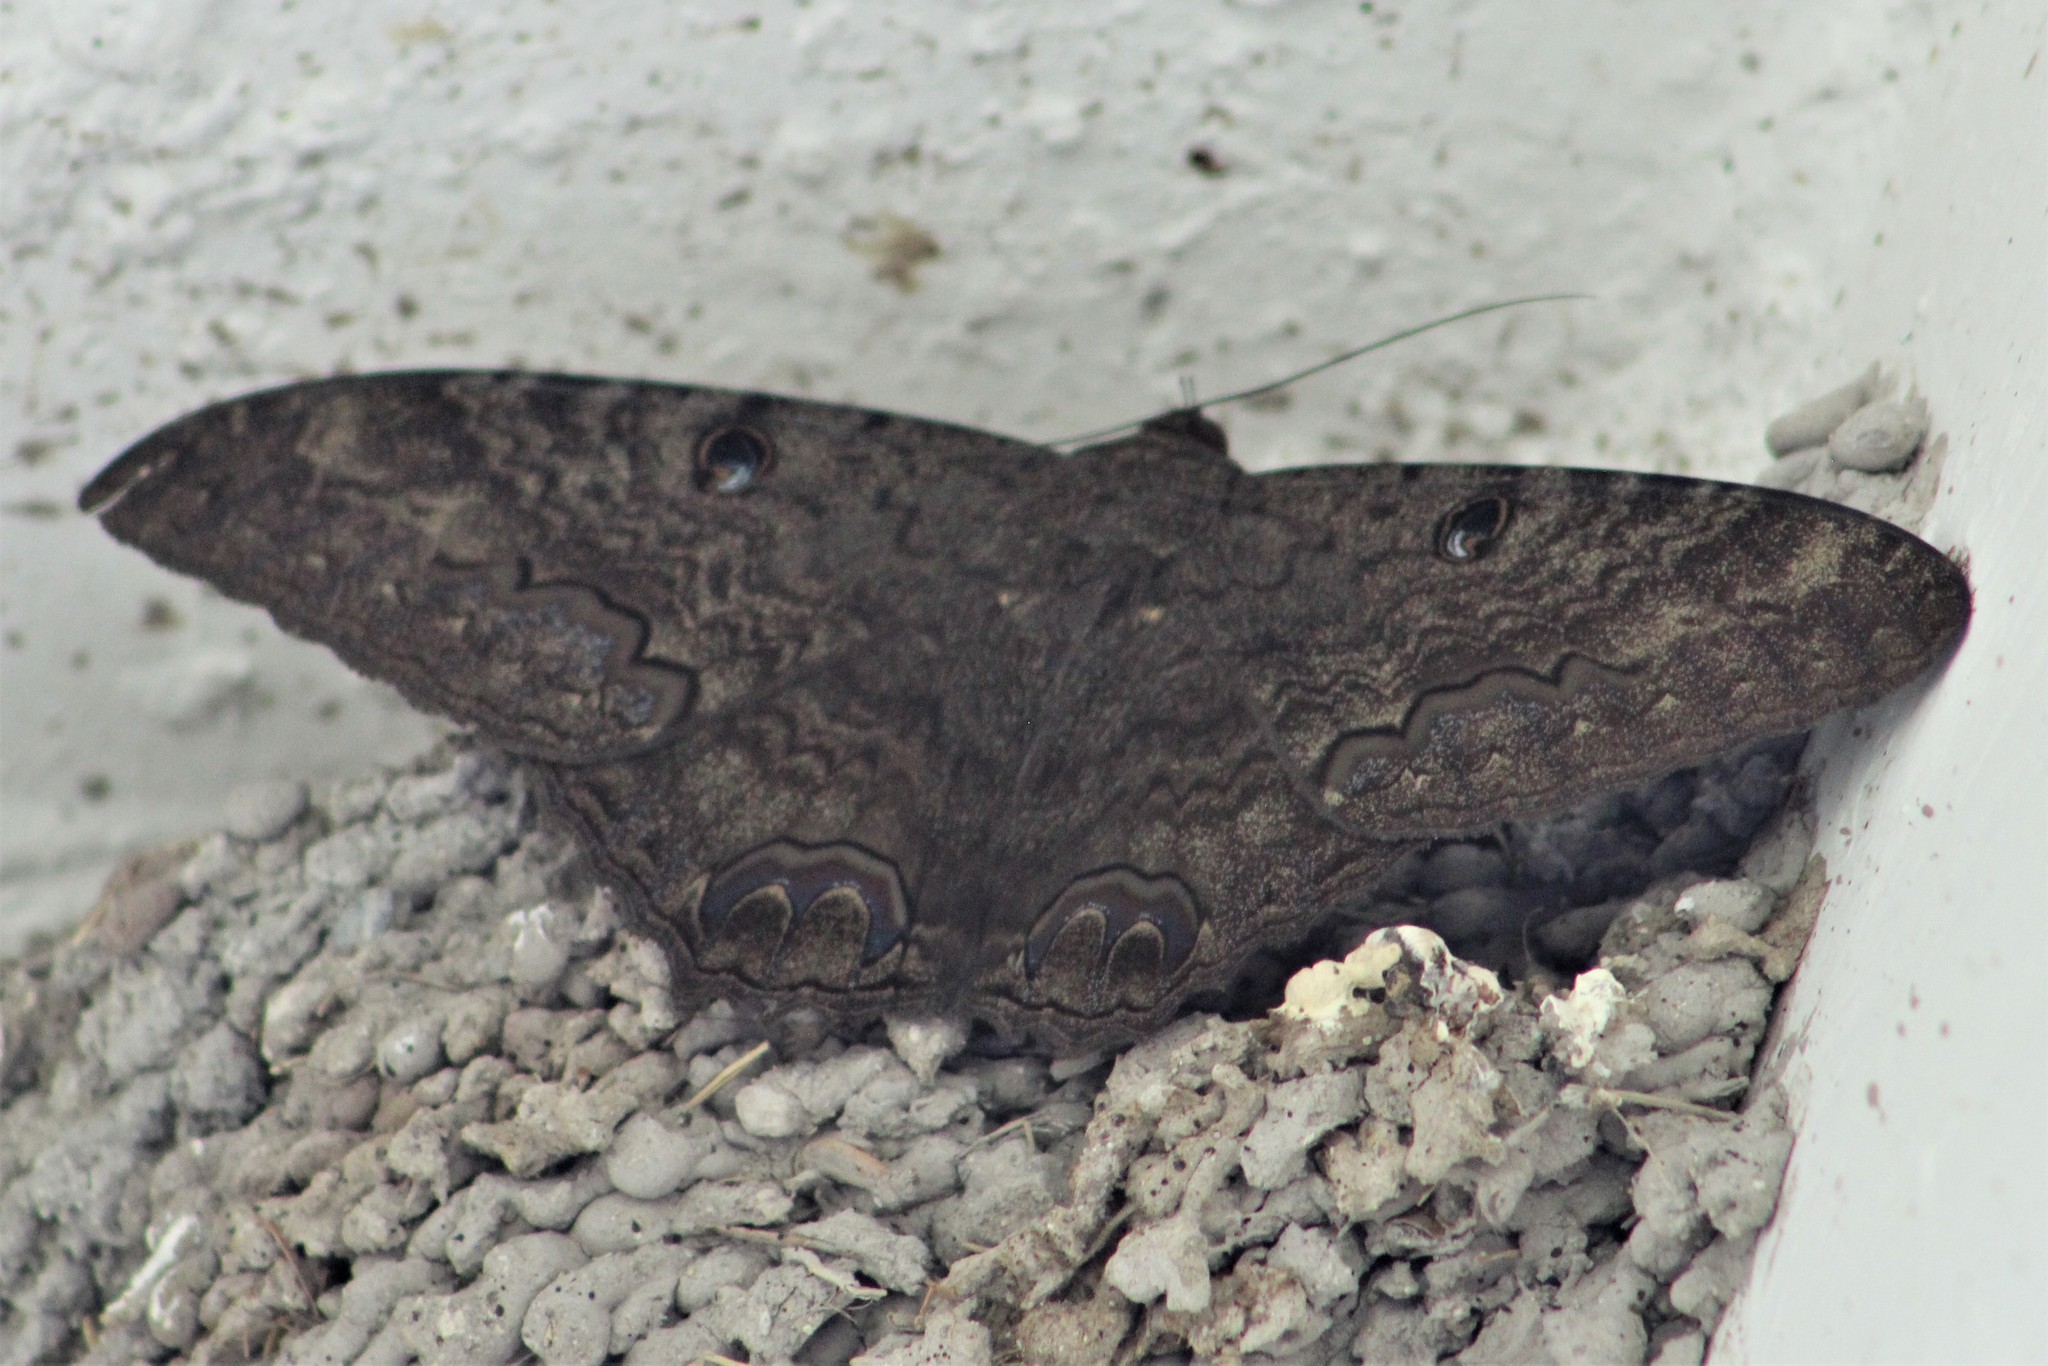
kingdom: Animalia
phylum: Arthropoda
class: Insecta
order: Lepidoptera
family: Erebidae
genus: Ascalapha
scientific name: Ascalapha odorata
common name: Black witch
